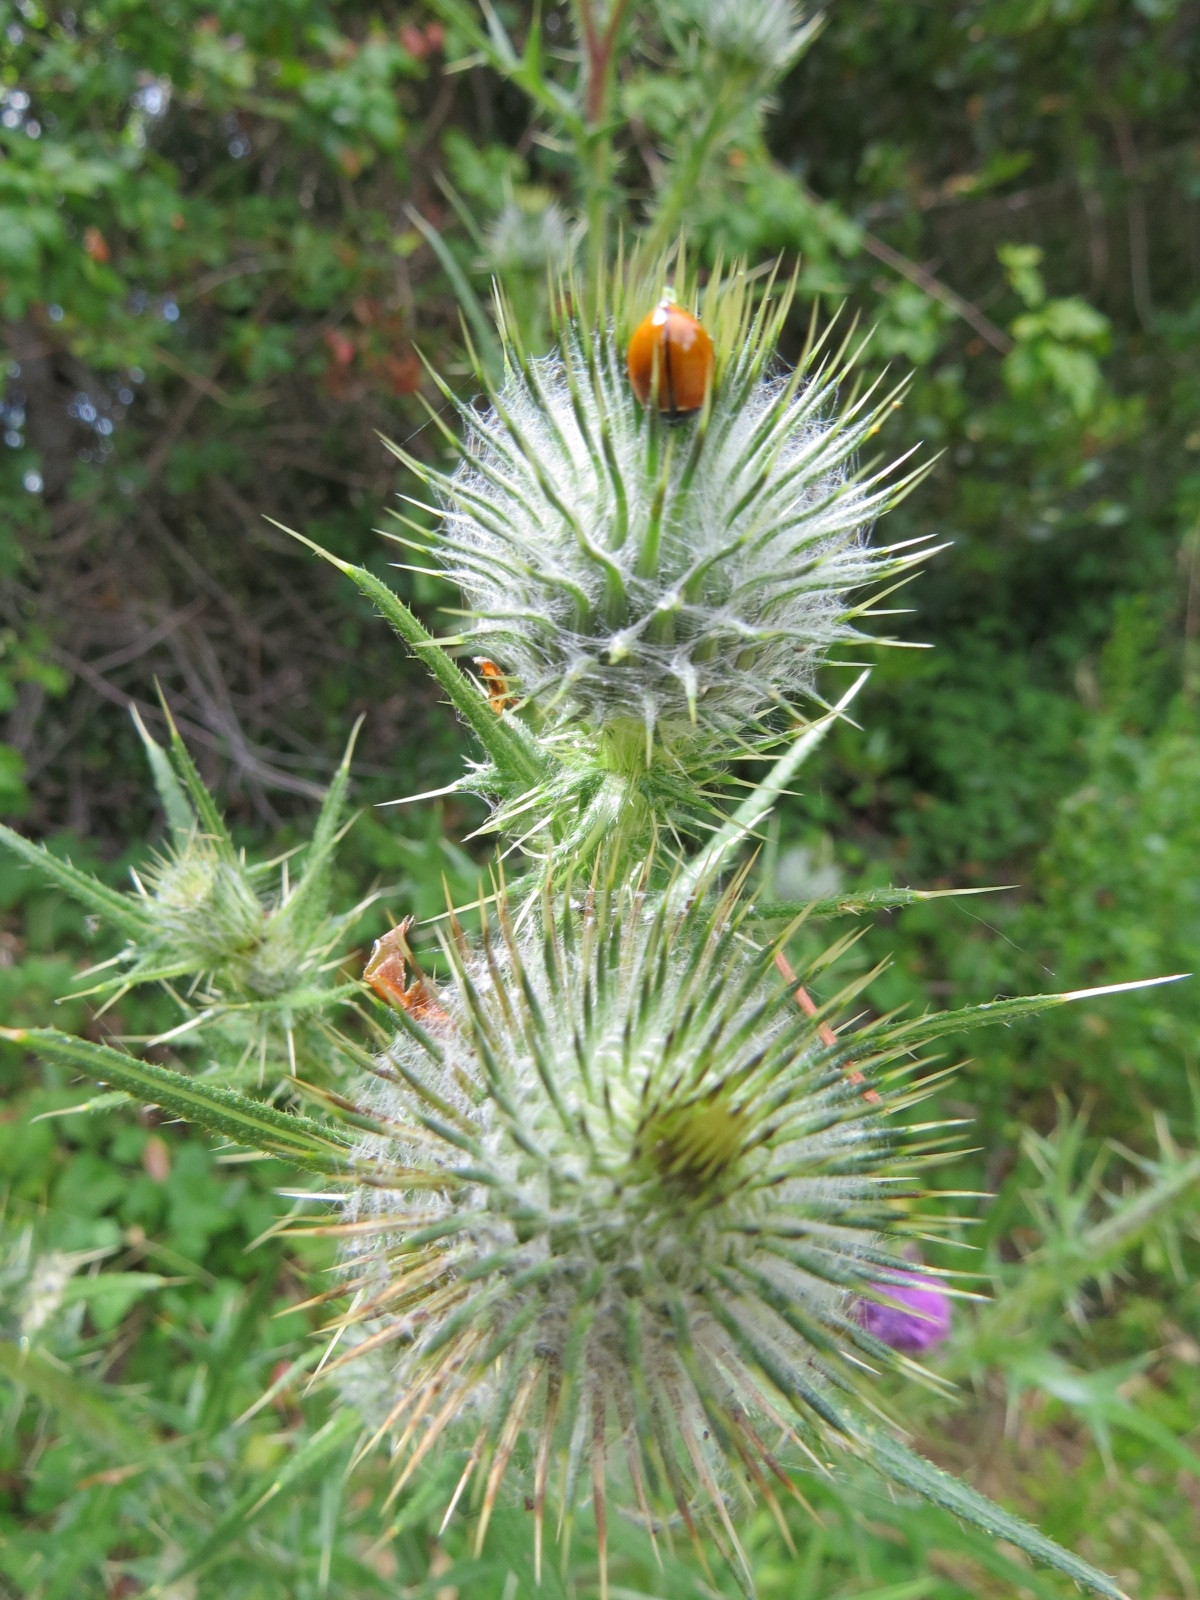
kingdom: Animalia
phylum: Arthropoda
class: Insecta
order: Coleoptera
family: Coccinellidae
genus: Coccinella
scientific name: Coccinella californica
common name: Lady beetle
